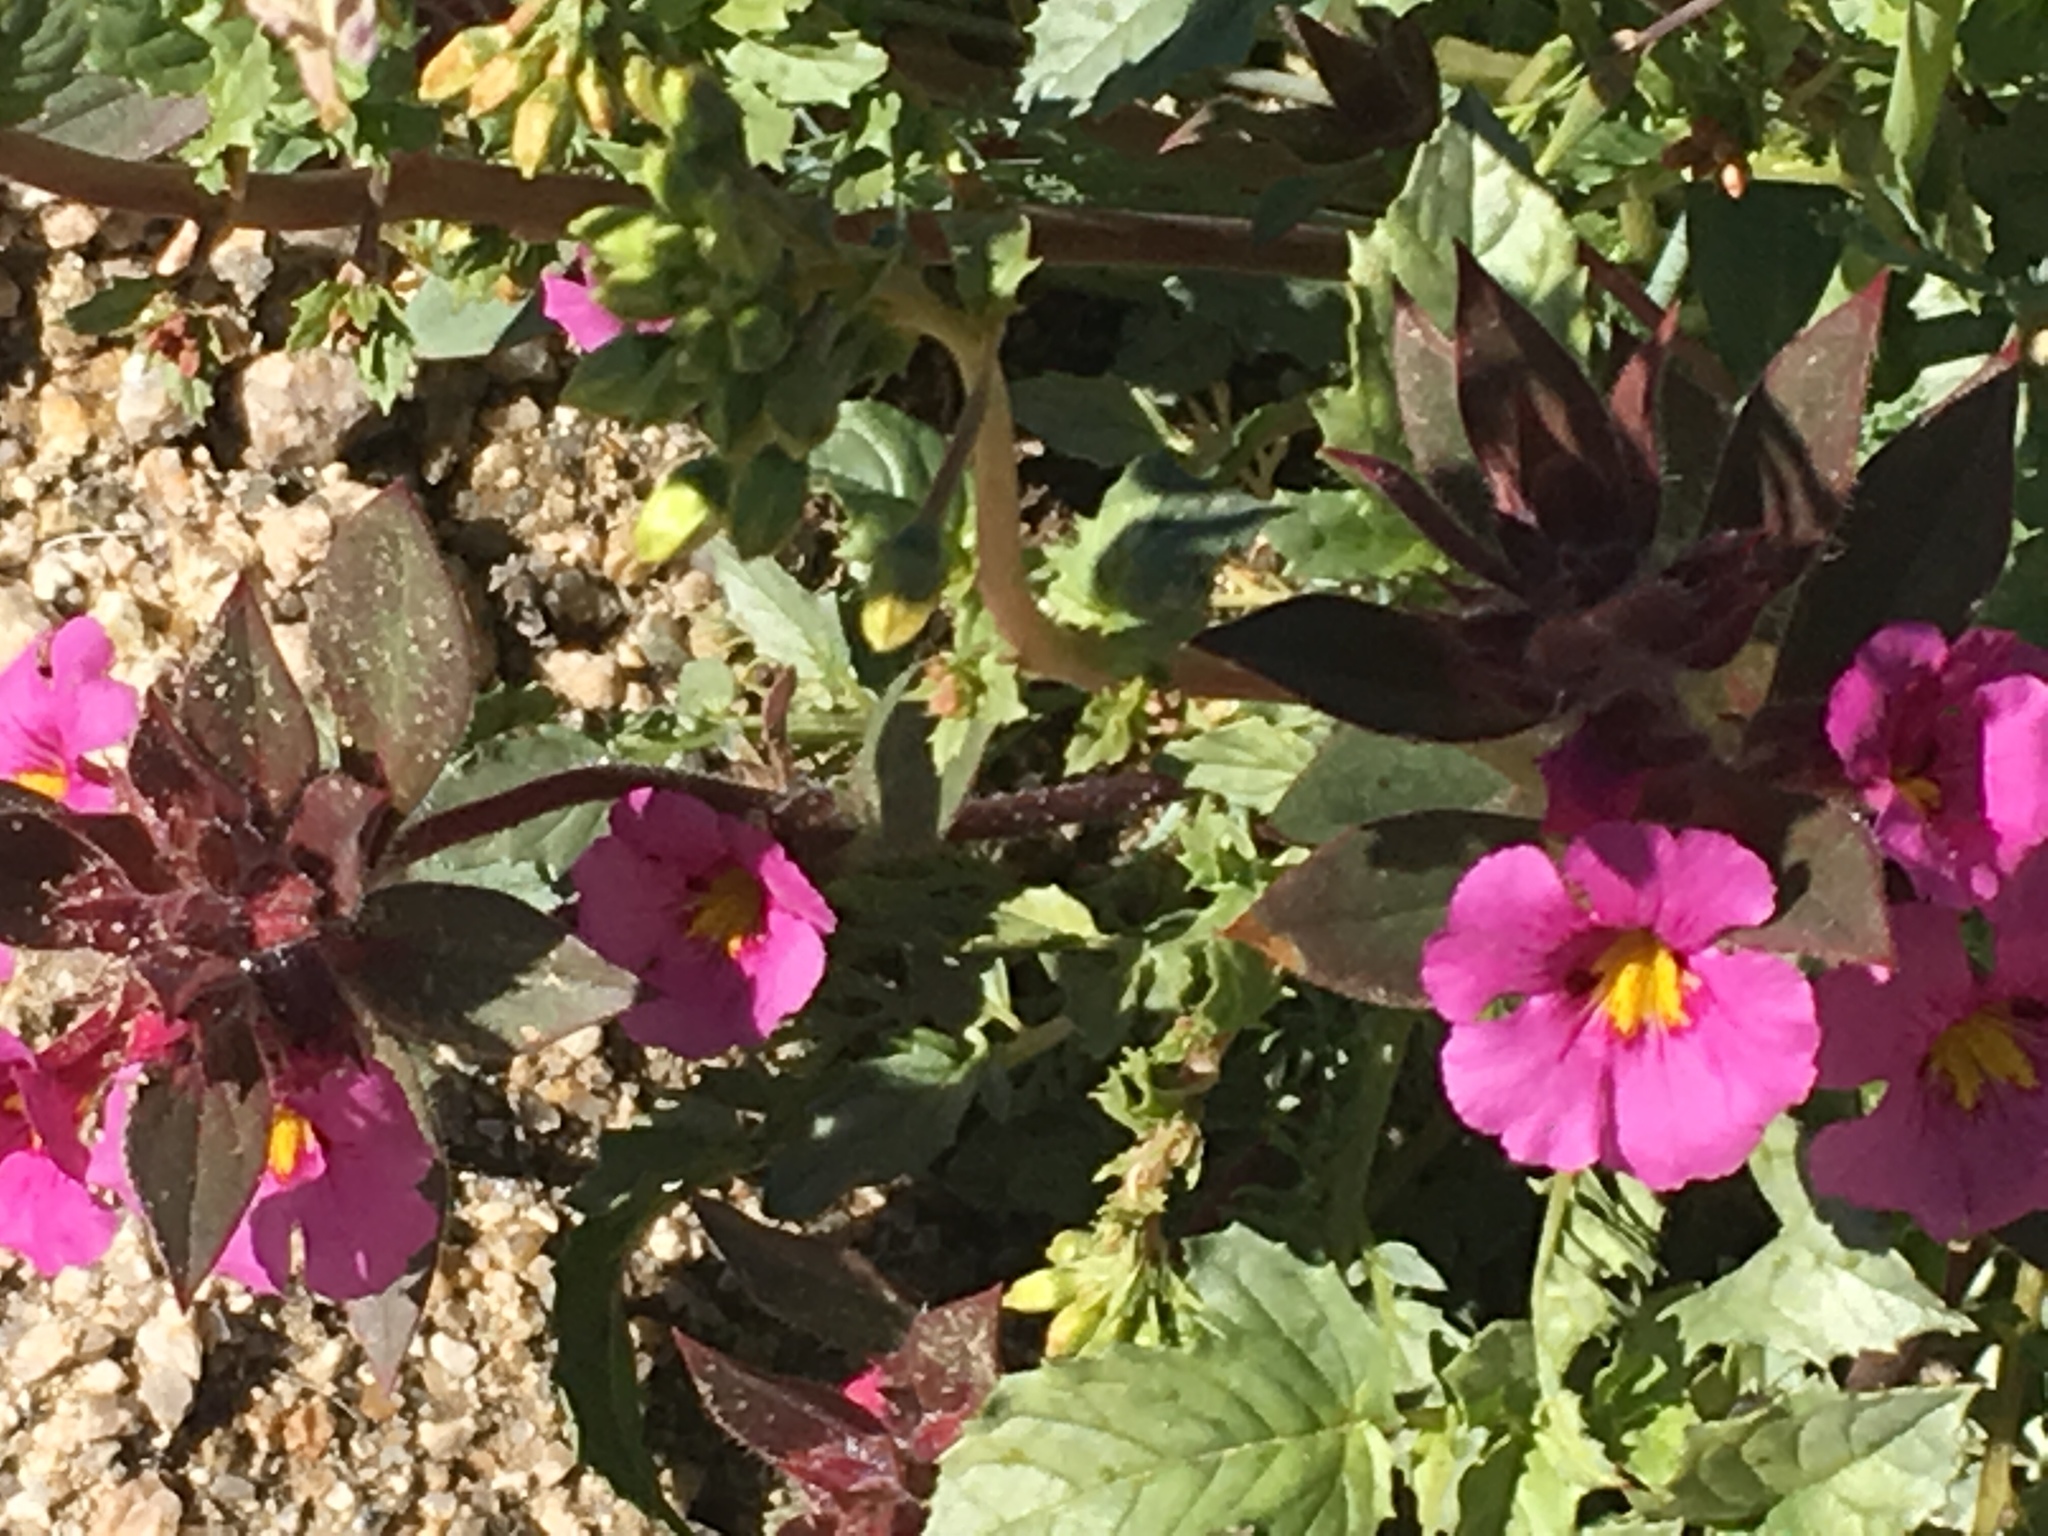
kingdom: Plantae
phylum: Tracheophyta
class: Magnoliopsida
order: Lamiales
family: Phrymaceae
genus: Diplacus
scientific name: Diplacus bigelovii
